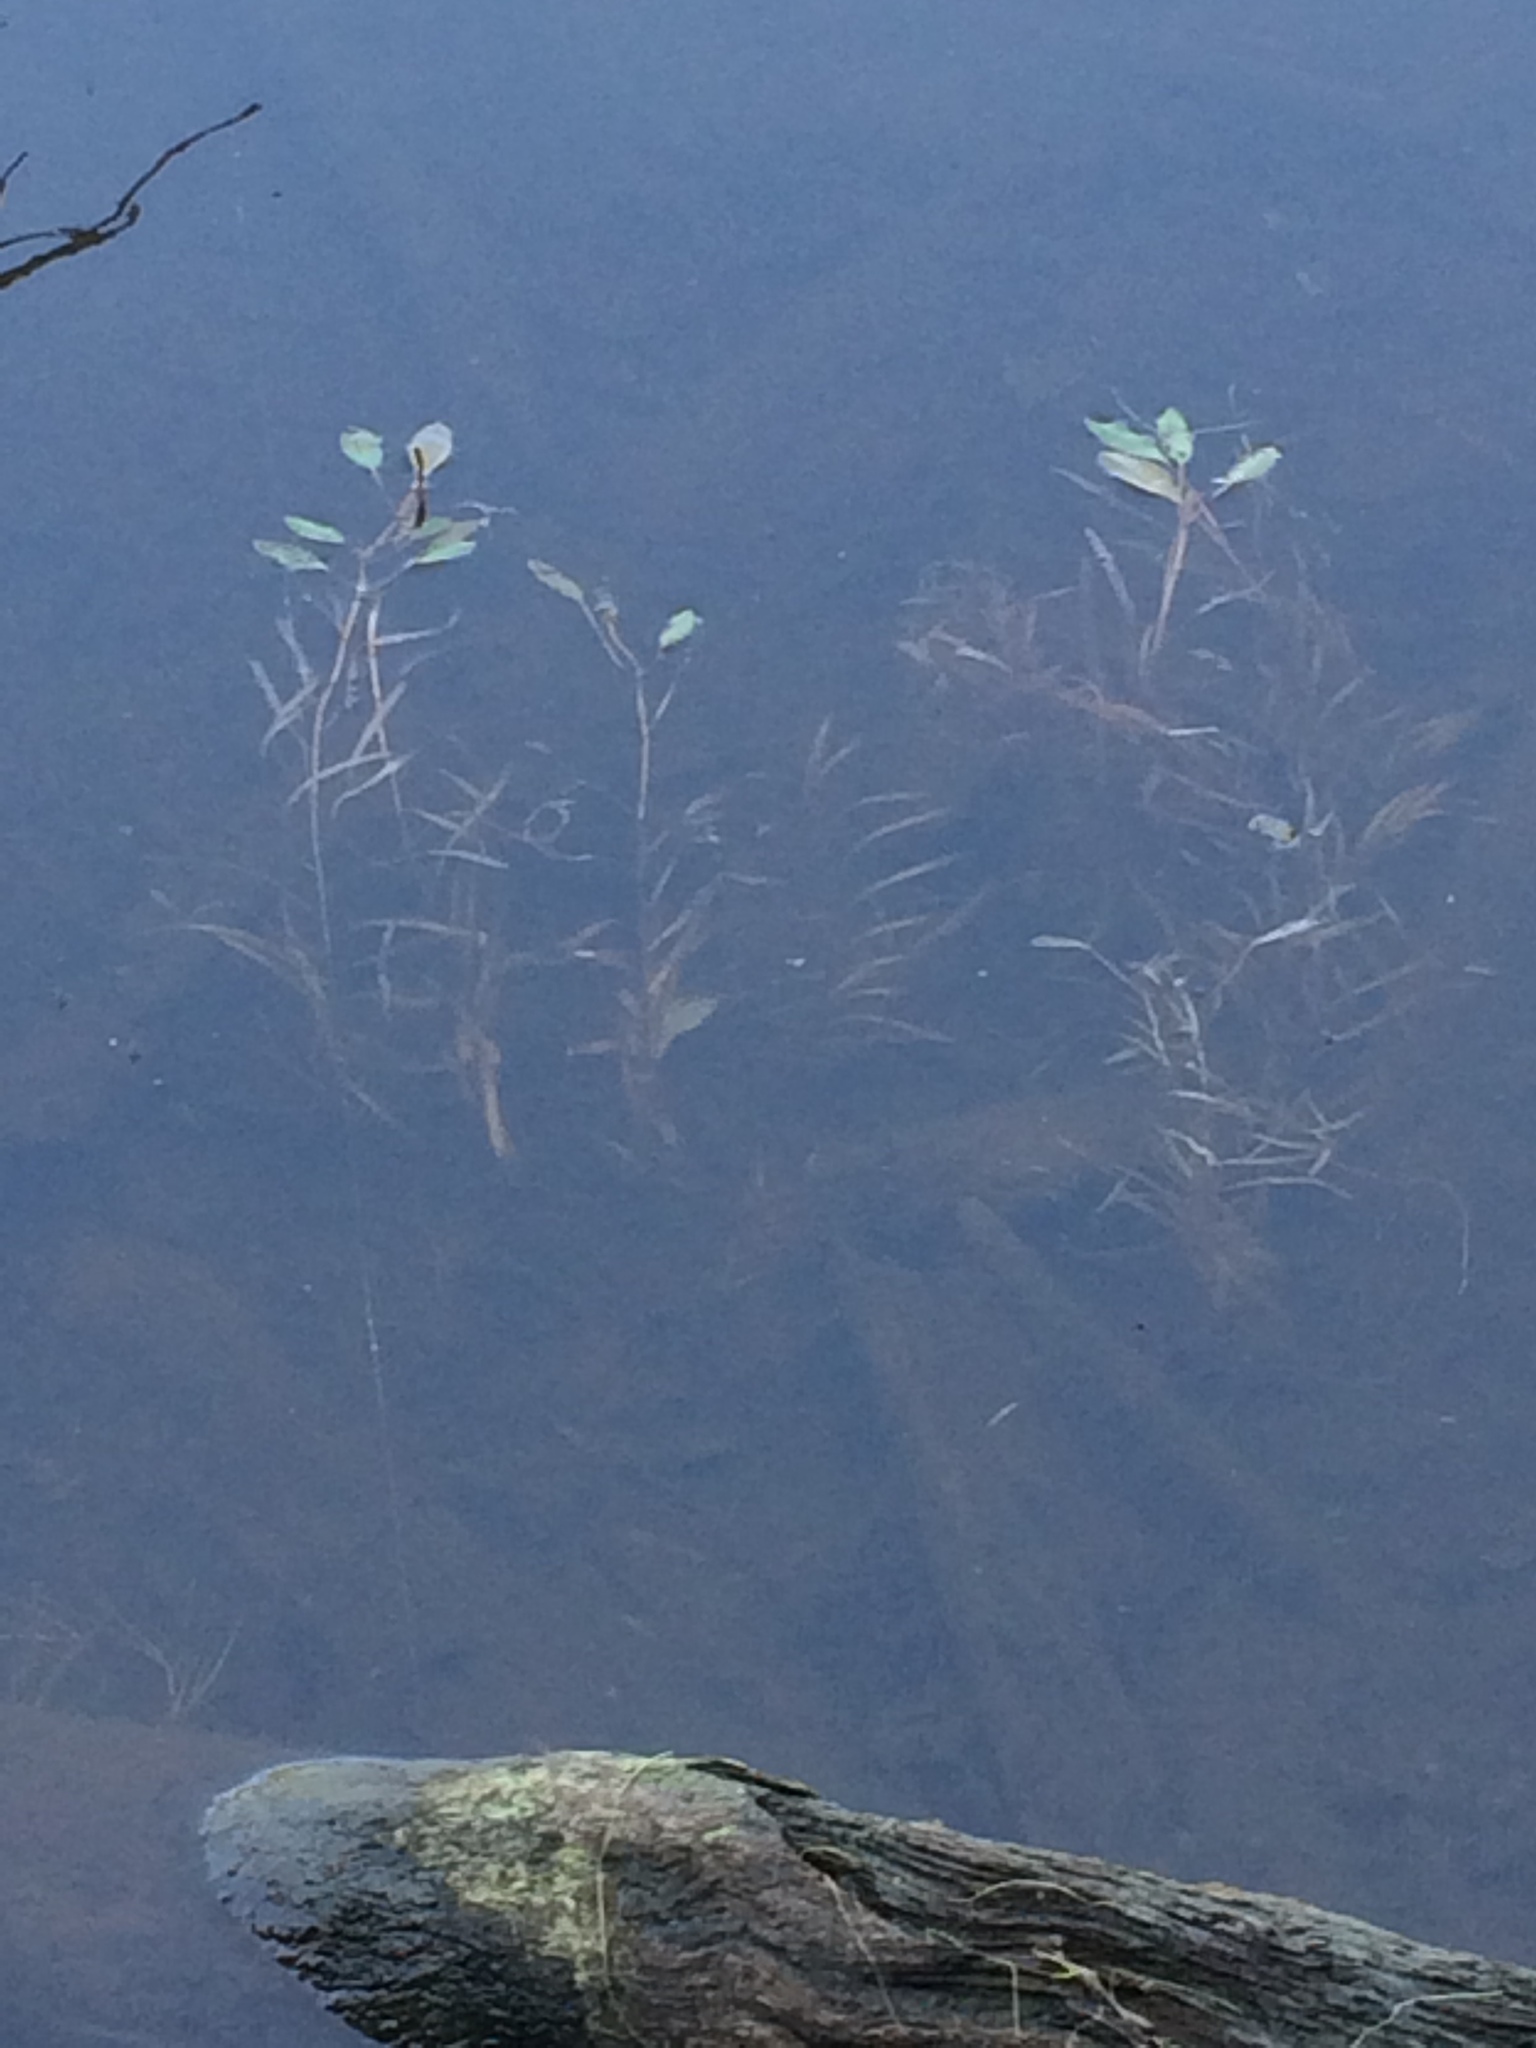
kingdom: Plantae
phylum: Tracheophyta
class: Liliopsida
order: Alismatales
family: Potamogetonaceae
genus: Potamogeton
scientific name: Potamogeton epihydrus
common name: American pondweed
